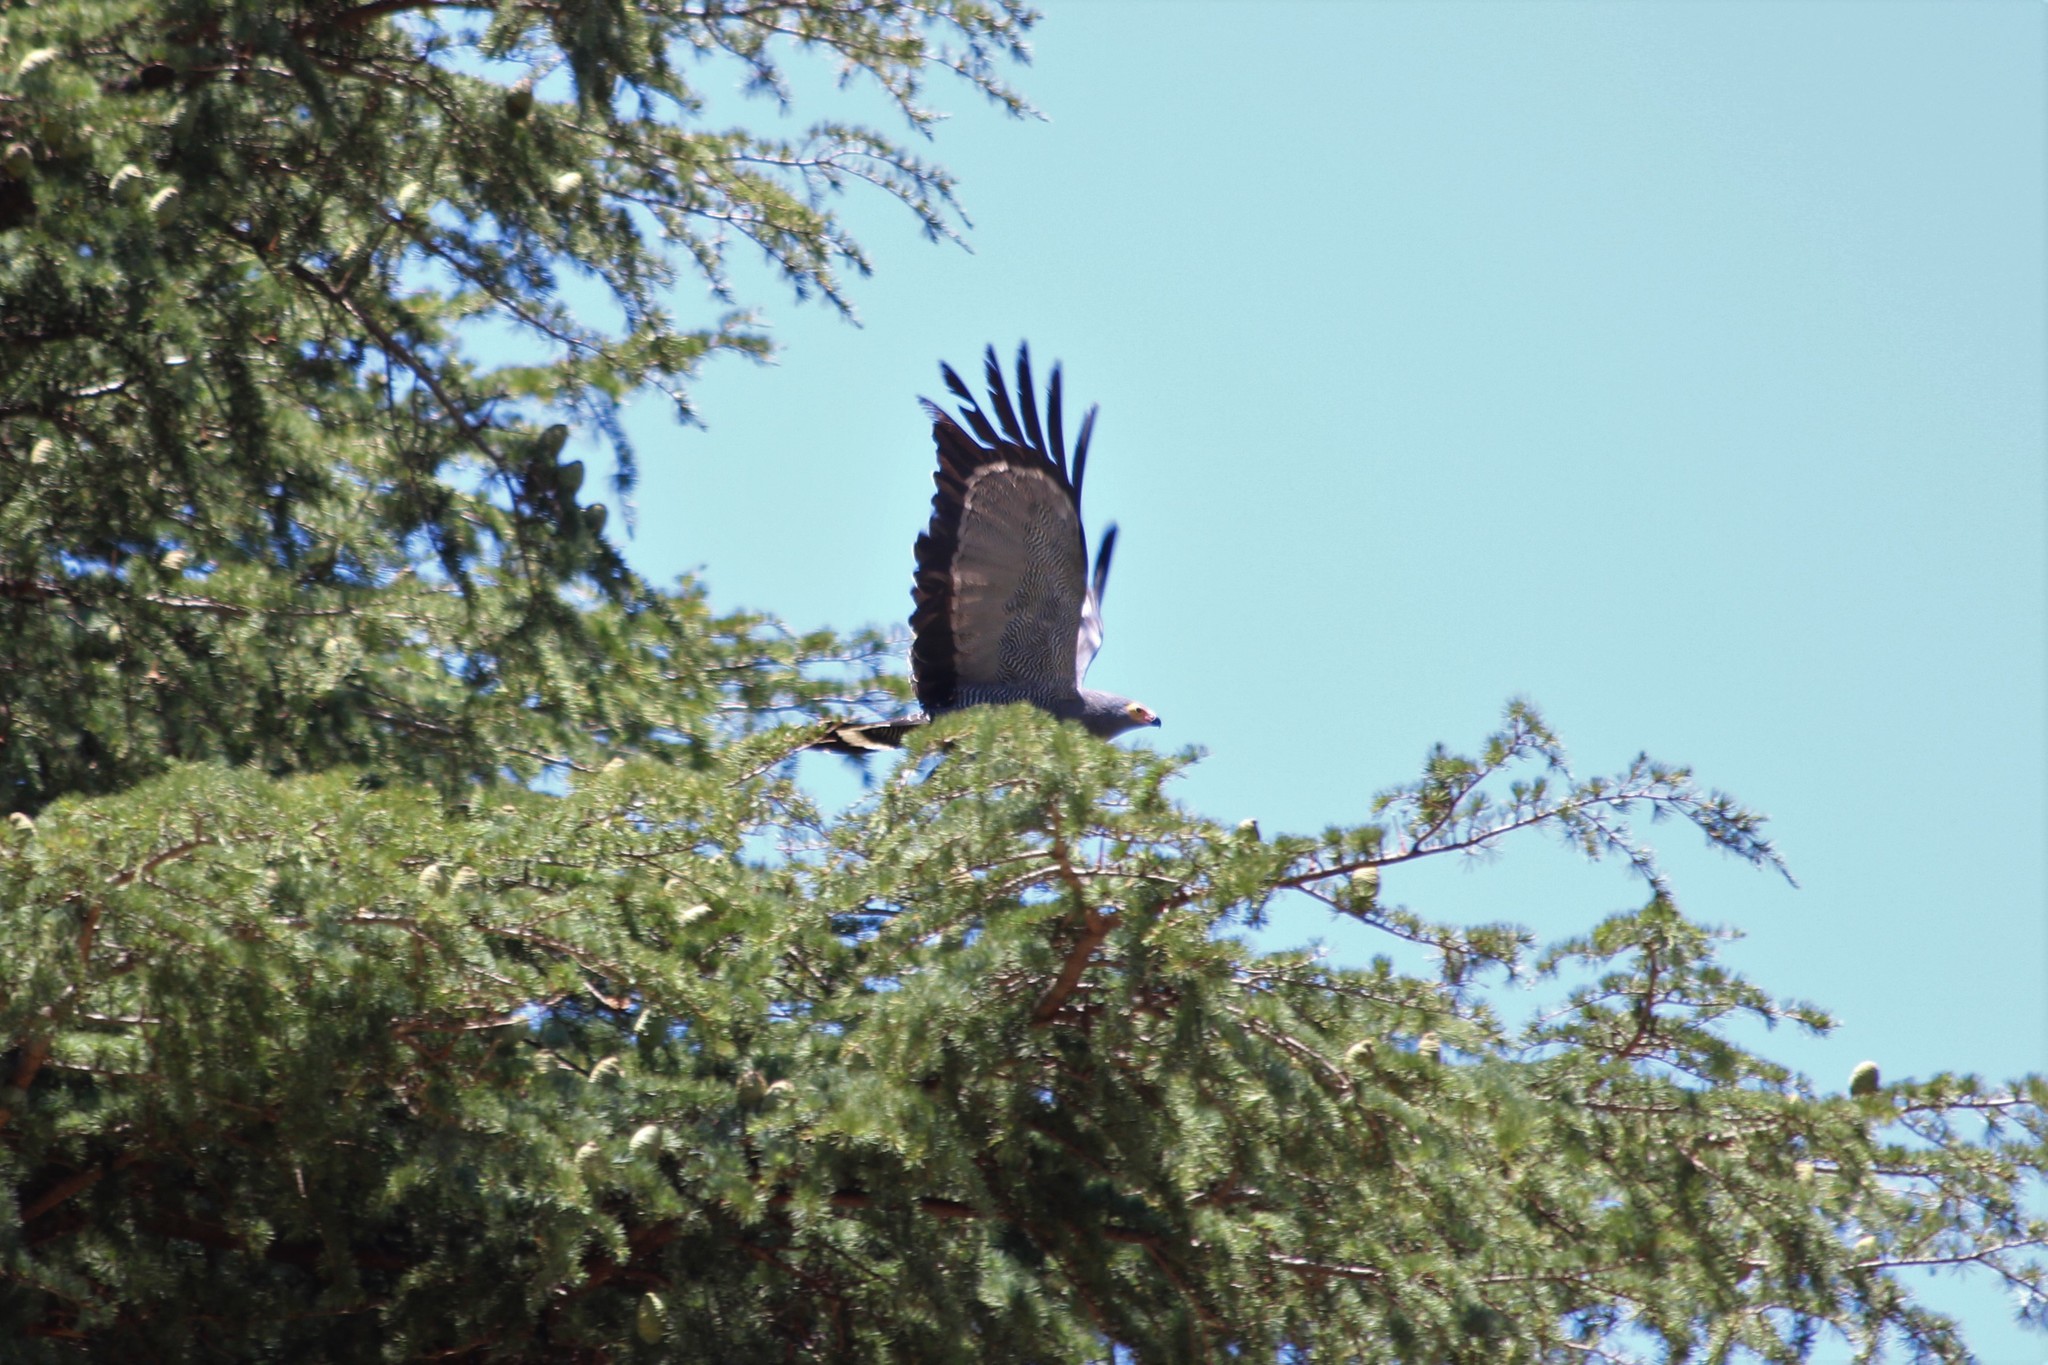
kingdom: Animalia
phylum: Chordata
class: Aves
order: Accipitriformes
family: Accipitridae
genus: Polyboroides
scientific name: Polyboroides typus
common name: African harrier-hawk
